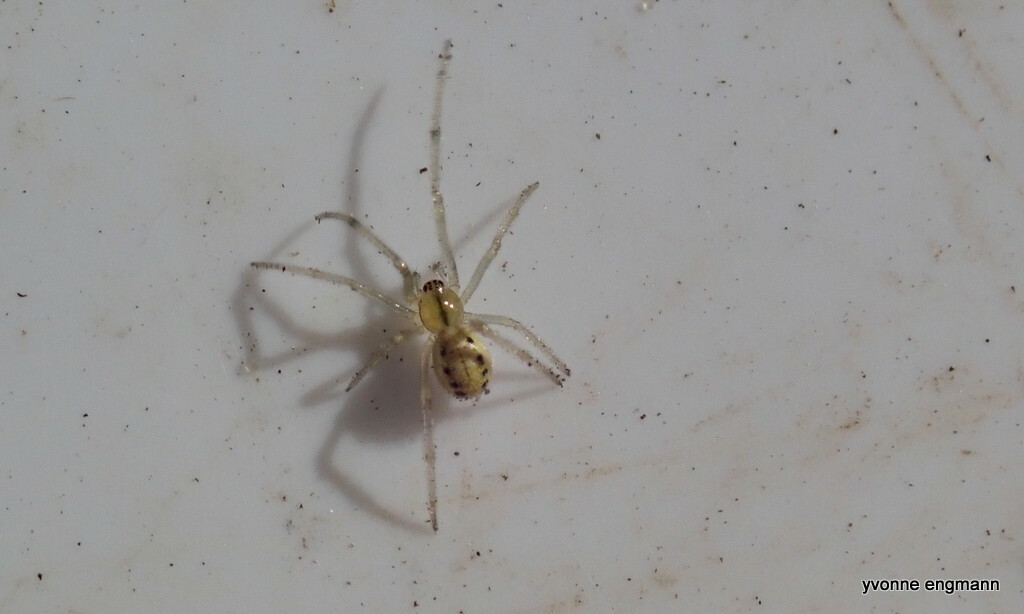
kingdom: Animalia
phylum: Arthropoda
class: Arachnida
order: Araneae
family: Theridiidae
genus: Enoplognatha
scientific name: Enoplognatha ovata
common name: Common candy-striped spider
